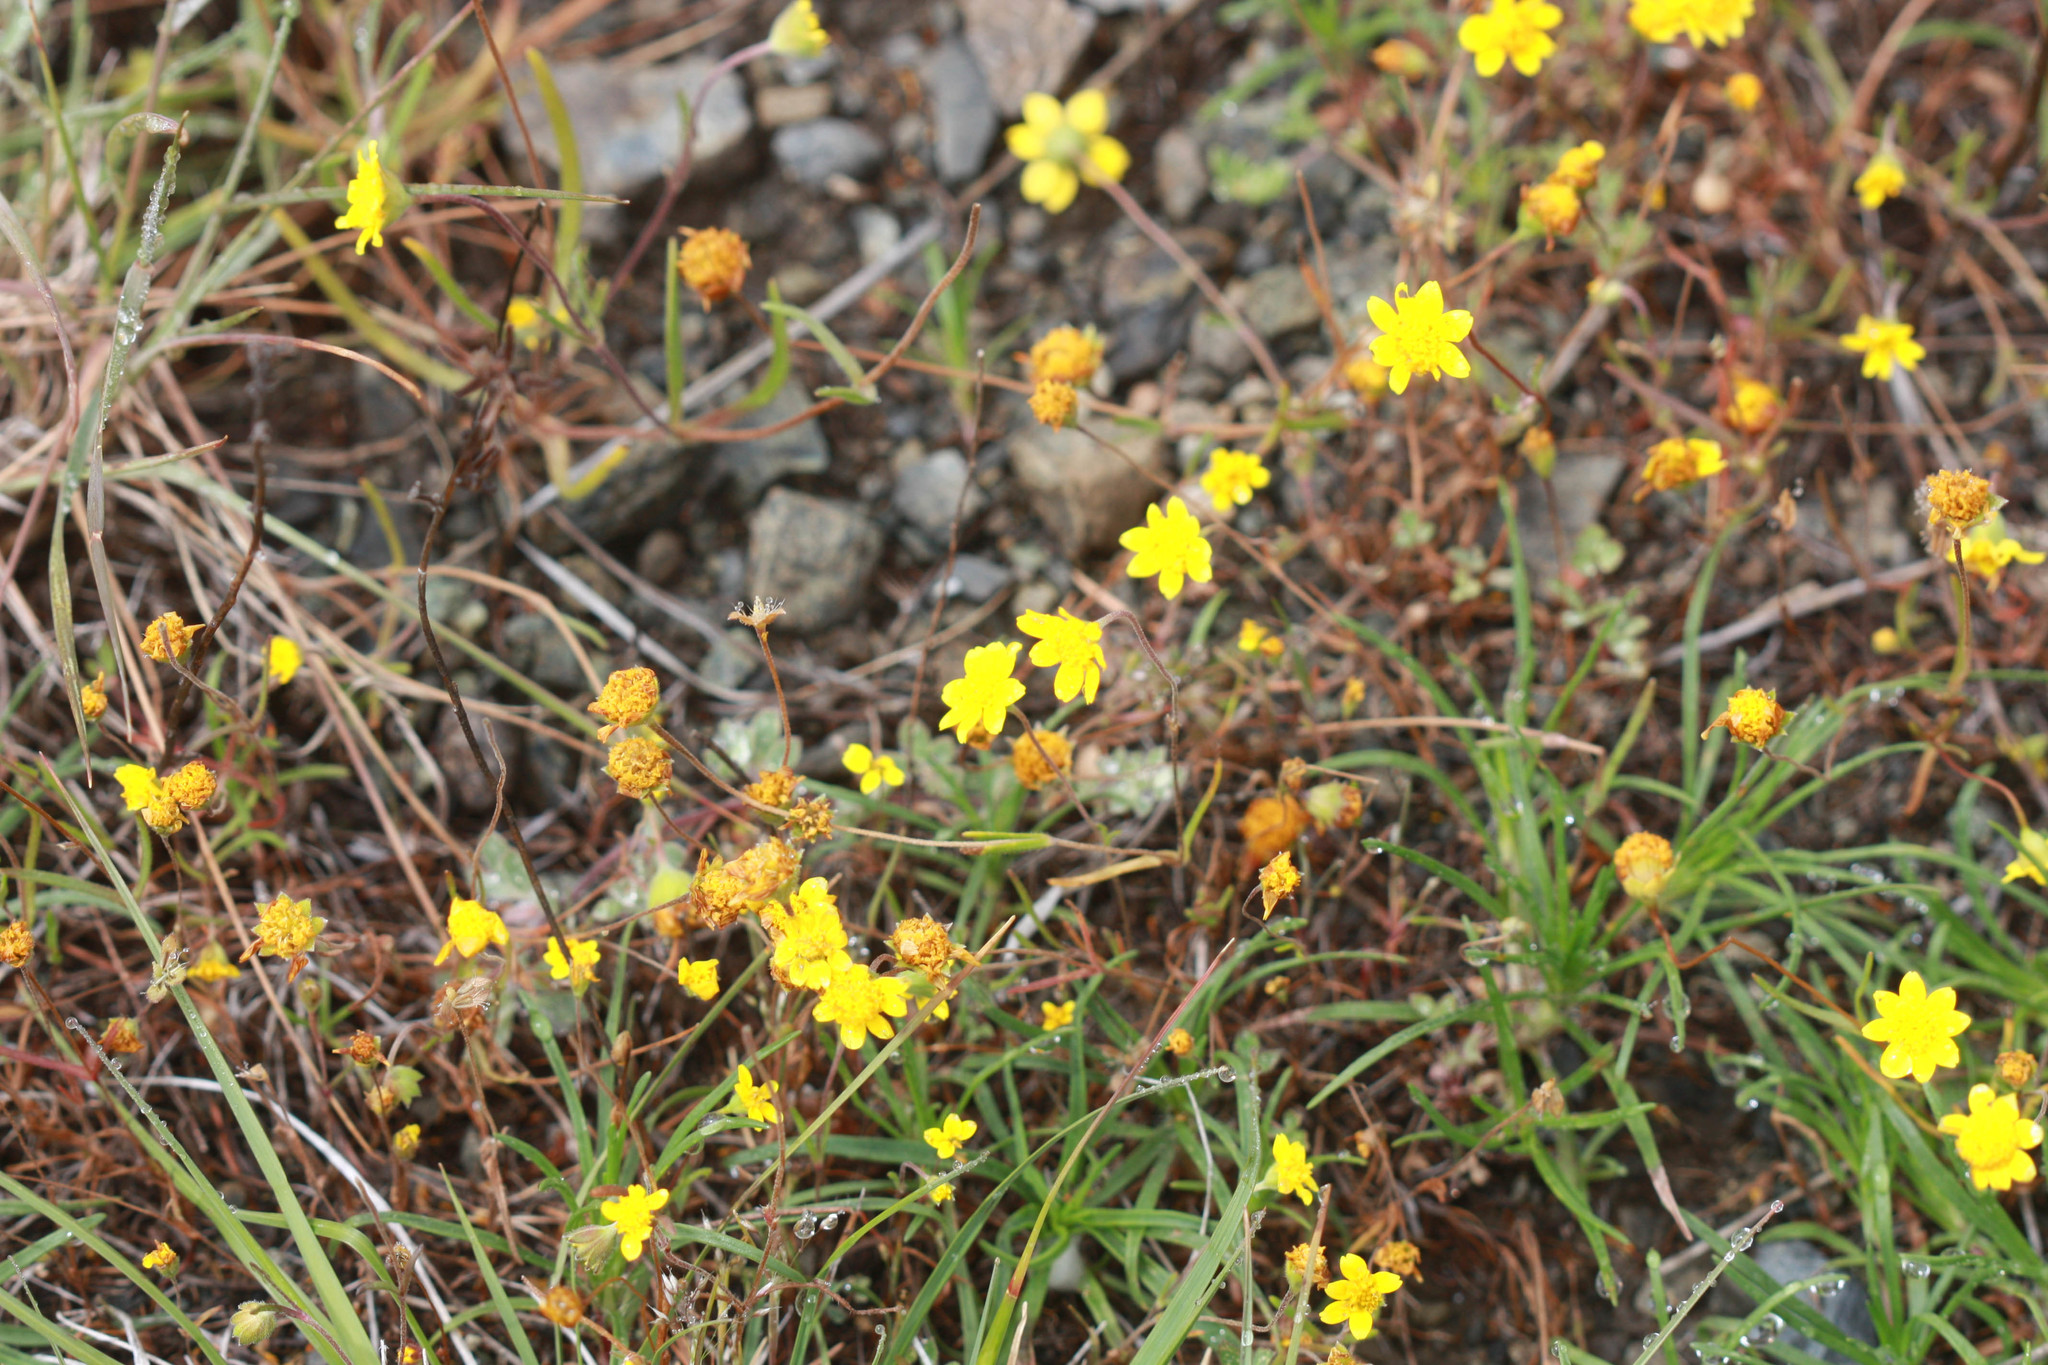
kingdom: Plantae
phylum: Tracheophyta
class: Magnoliopsida
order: Asterales
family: Asteraceae
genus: Lasthenia
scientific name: Lasthenia californica
